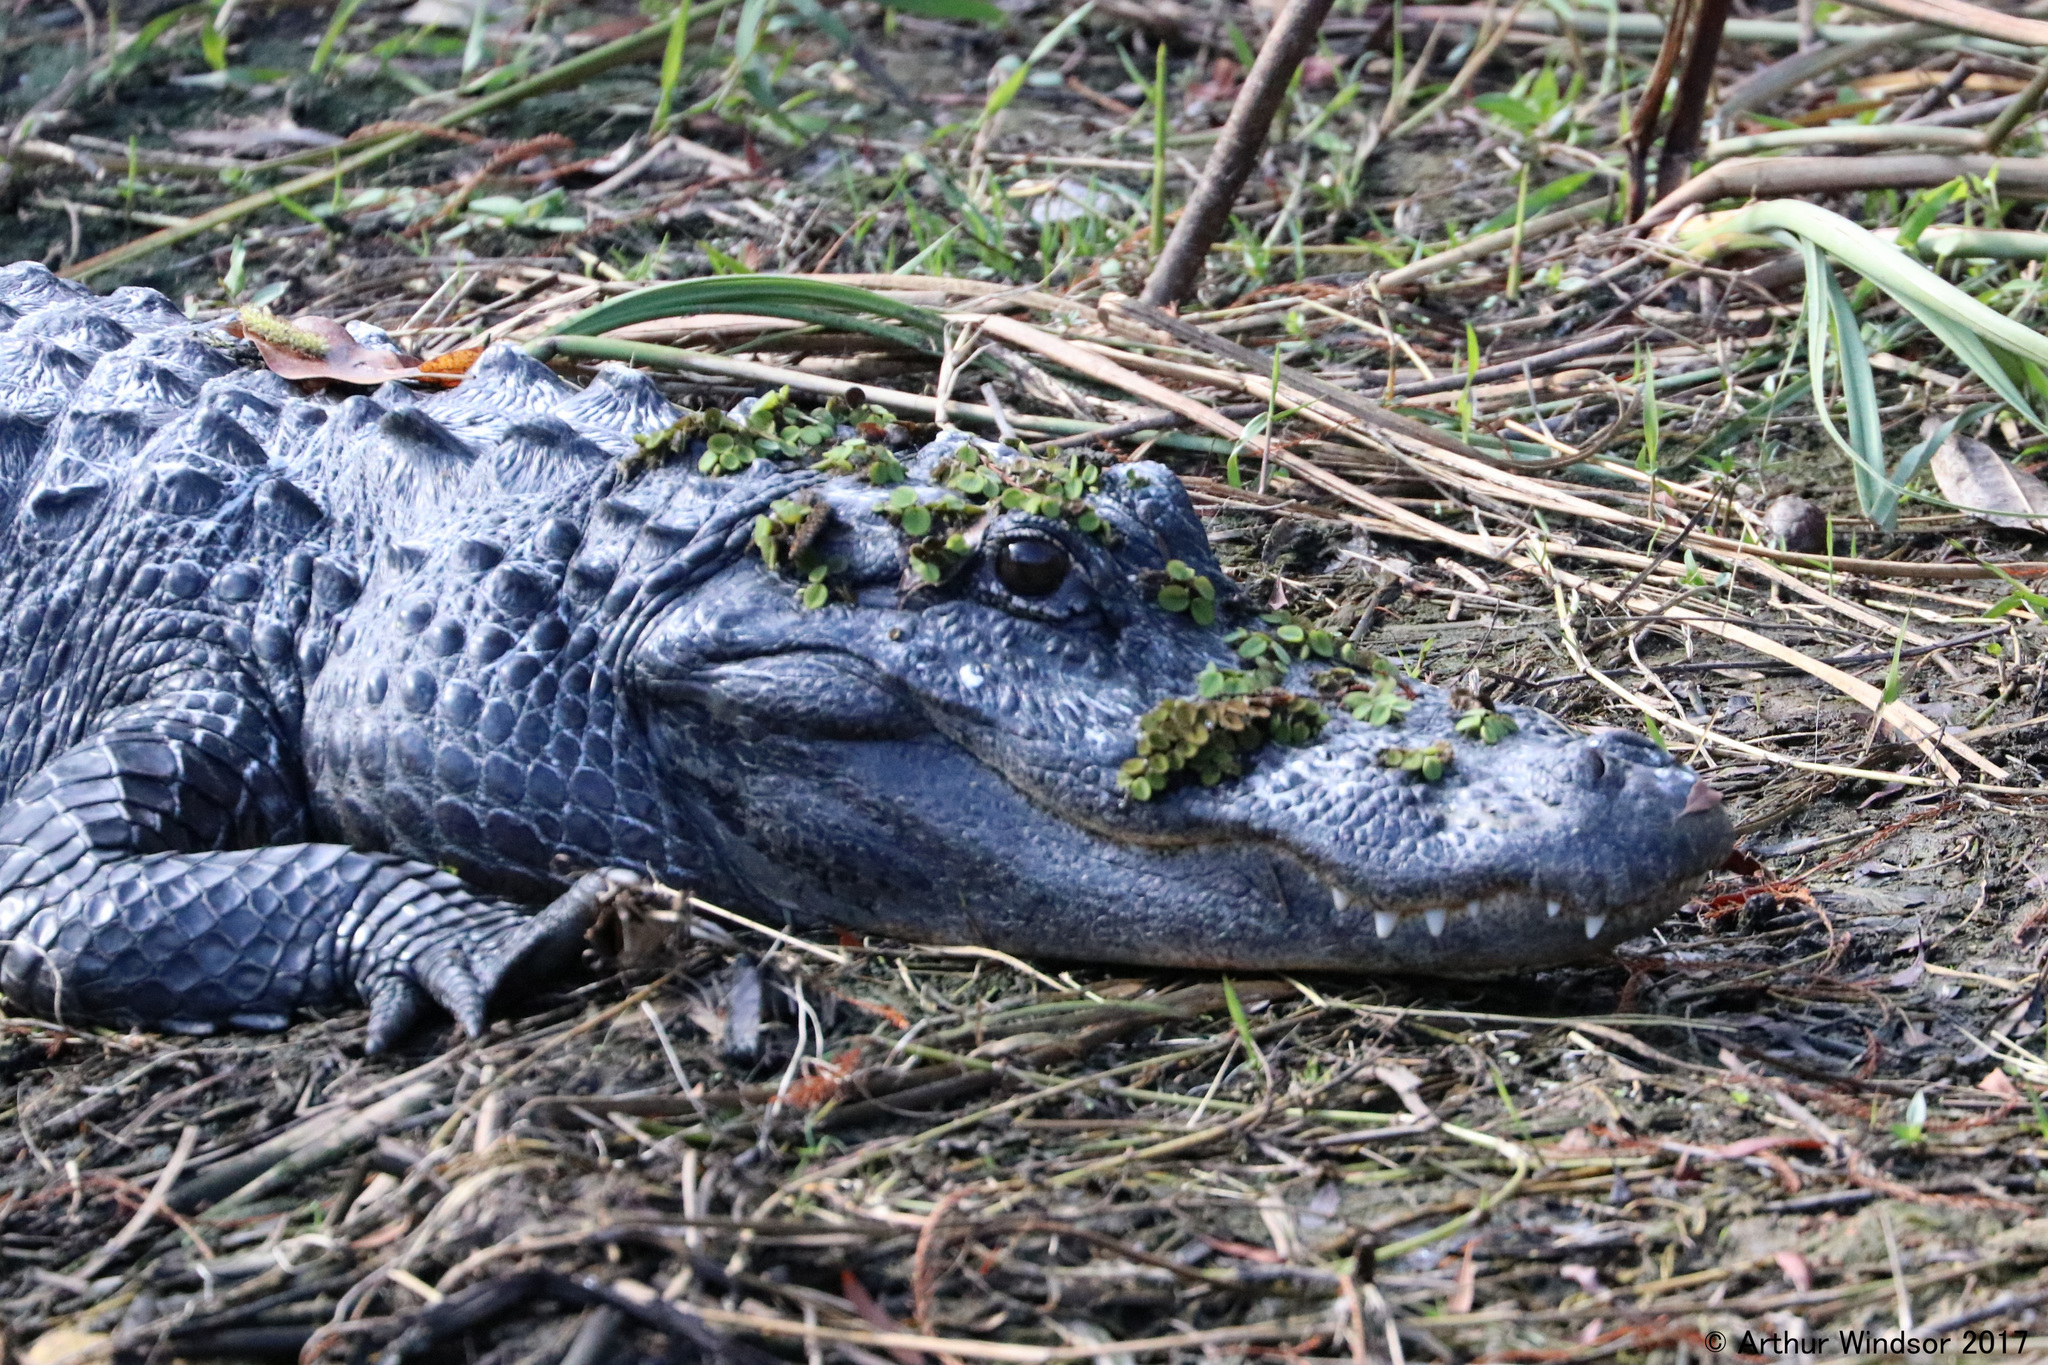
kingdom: Animalia
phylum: Chordata
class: Crocodylia
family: Alligatoridae
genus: Alligator
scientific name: Alligator mississippiensis
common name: American alligator
